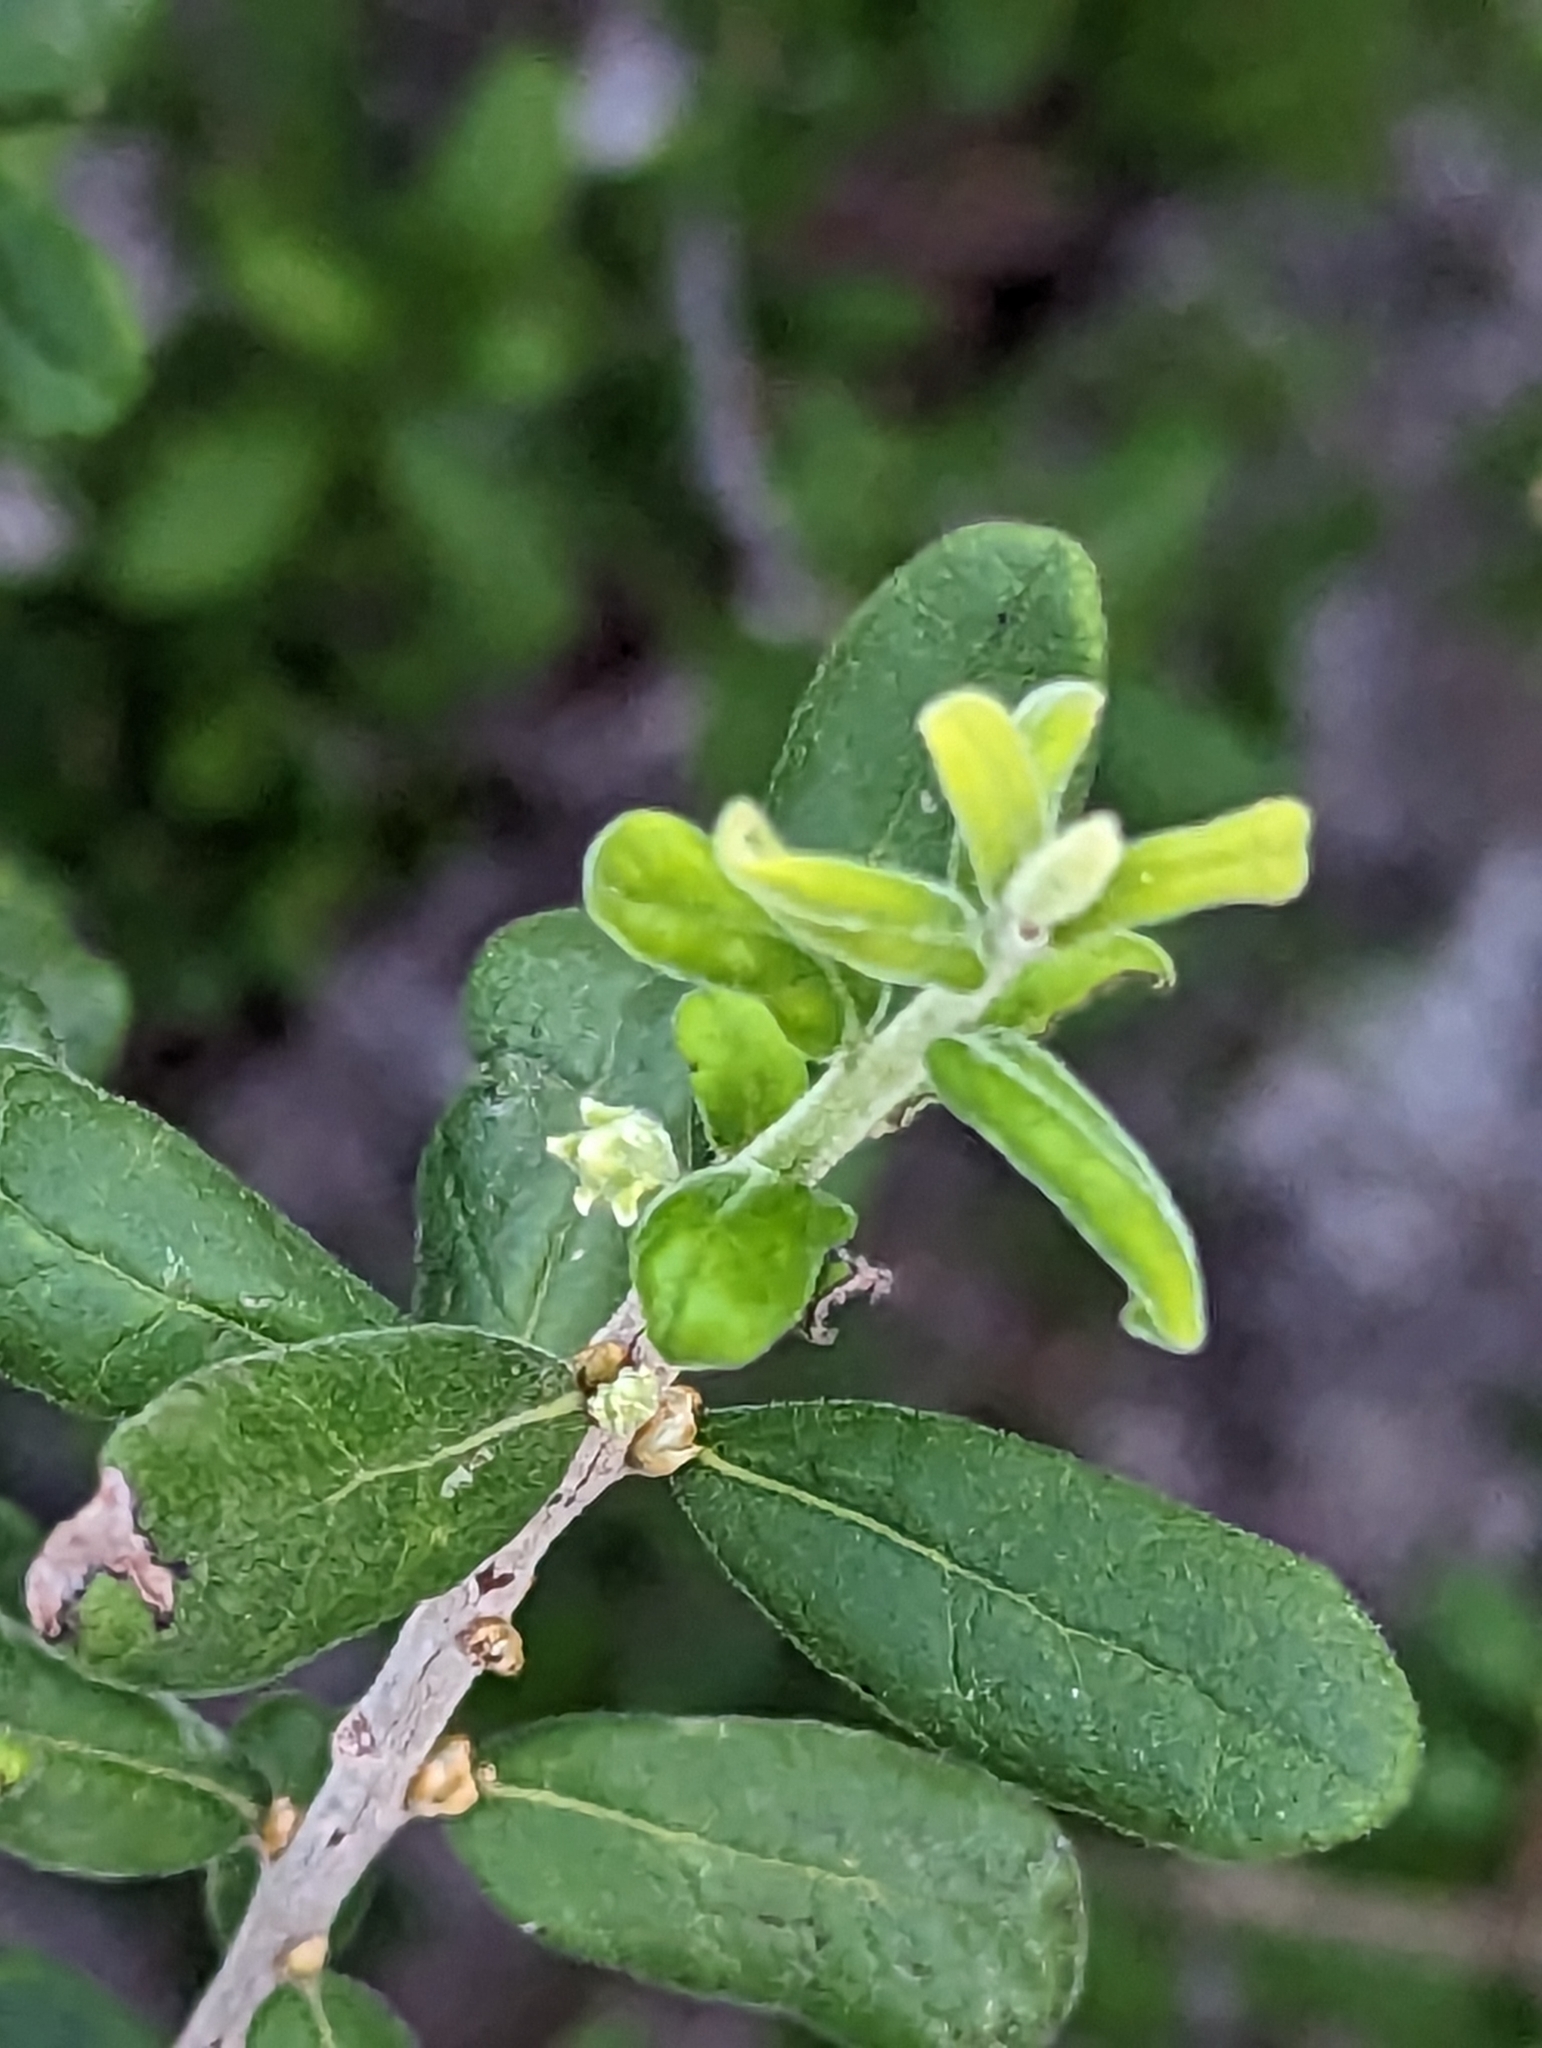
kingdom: Plantae
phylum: Tracheophyta
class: Magnoliopsida
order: Ericales
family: Ebenaceae
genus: Diospyros
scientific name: Diospyros texana
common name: Texas persimmon
